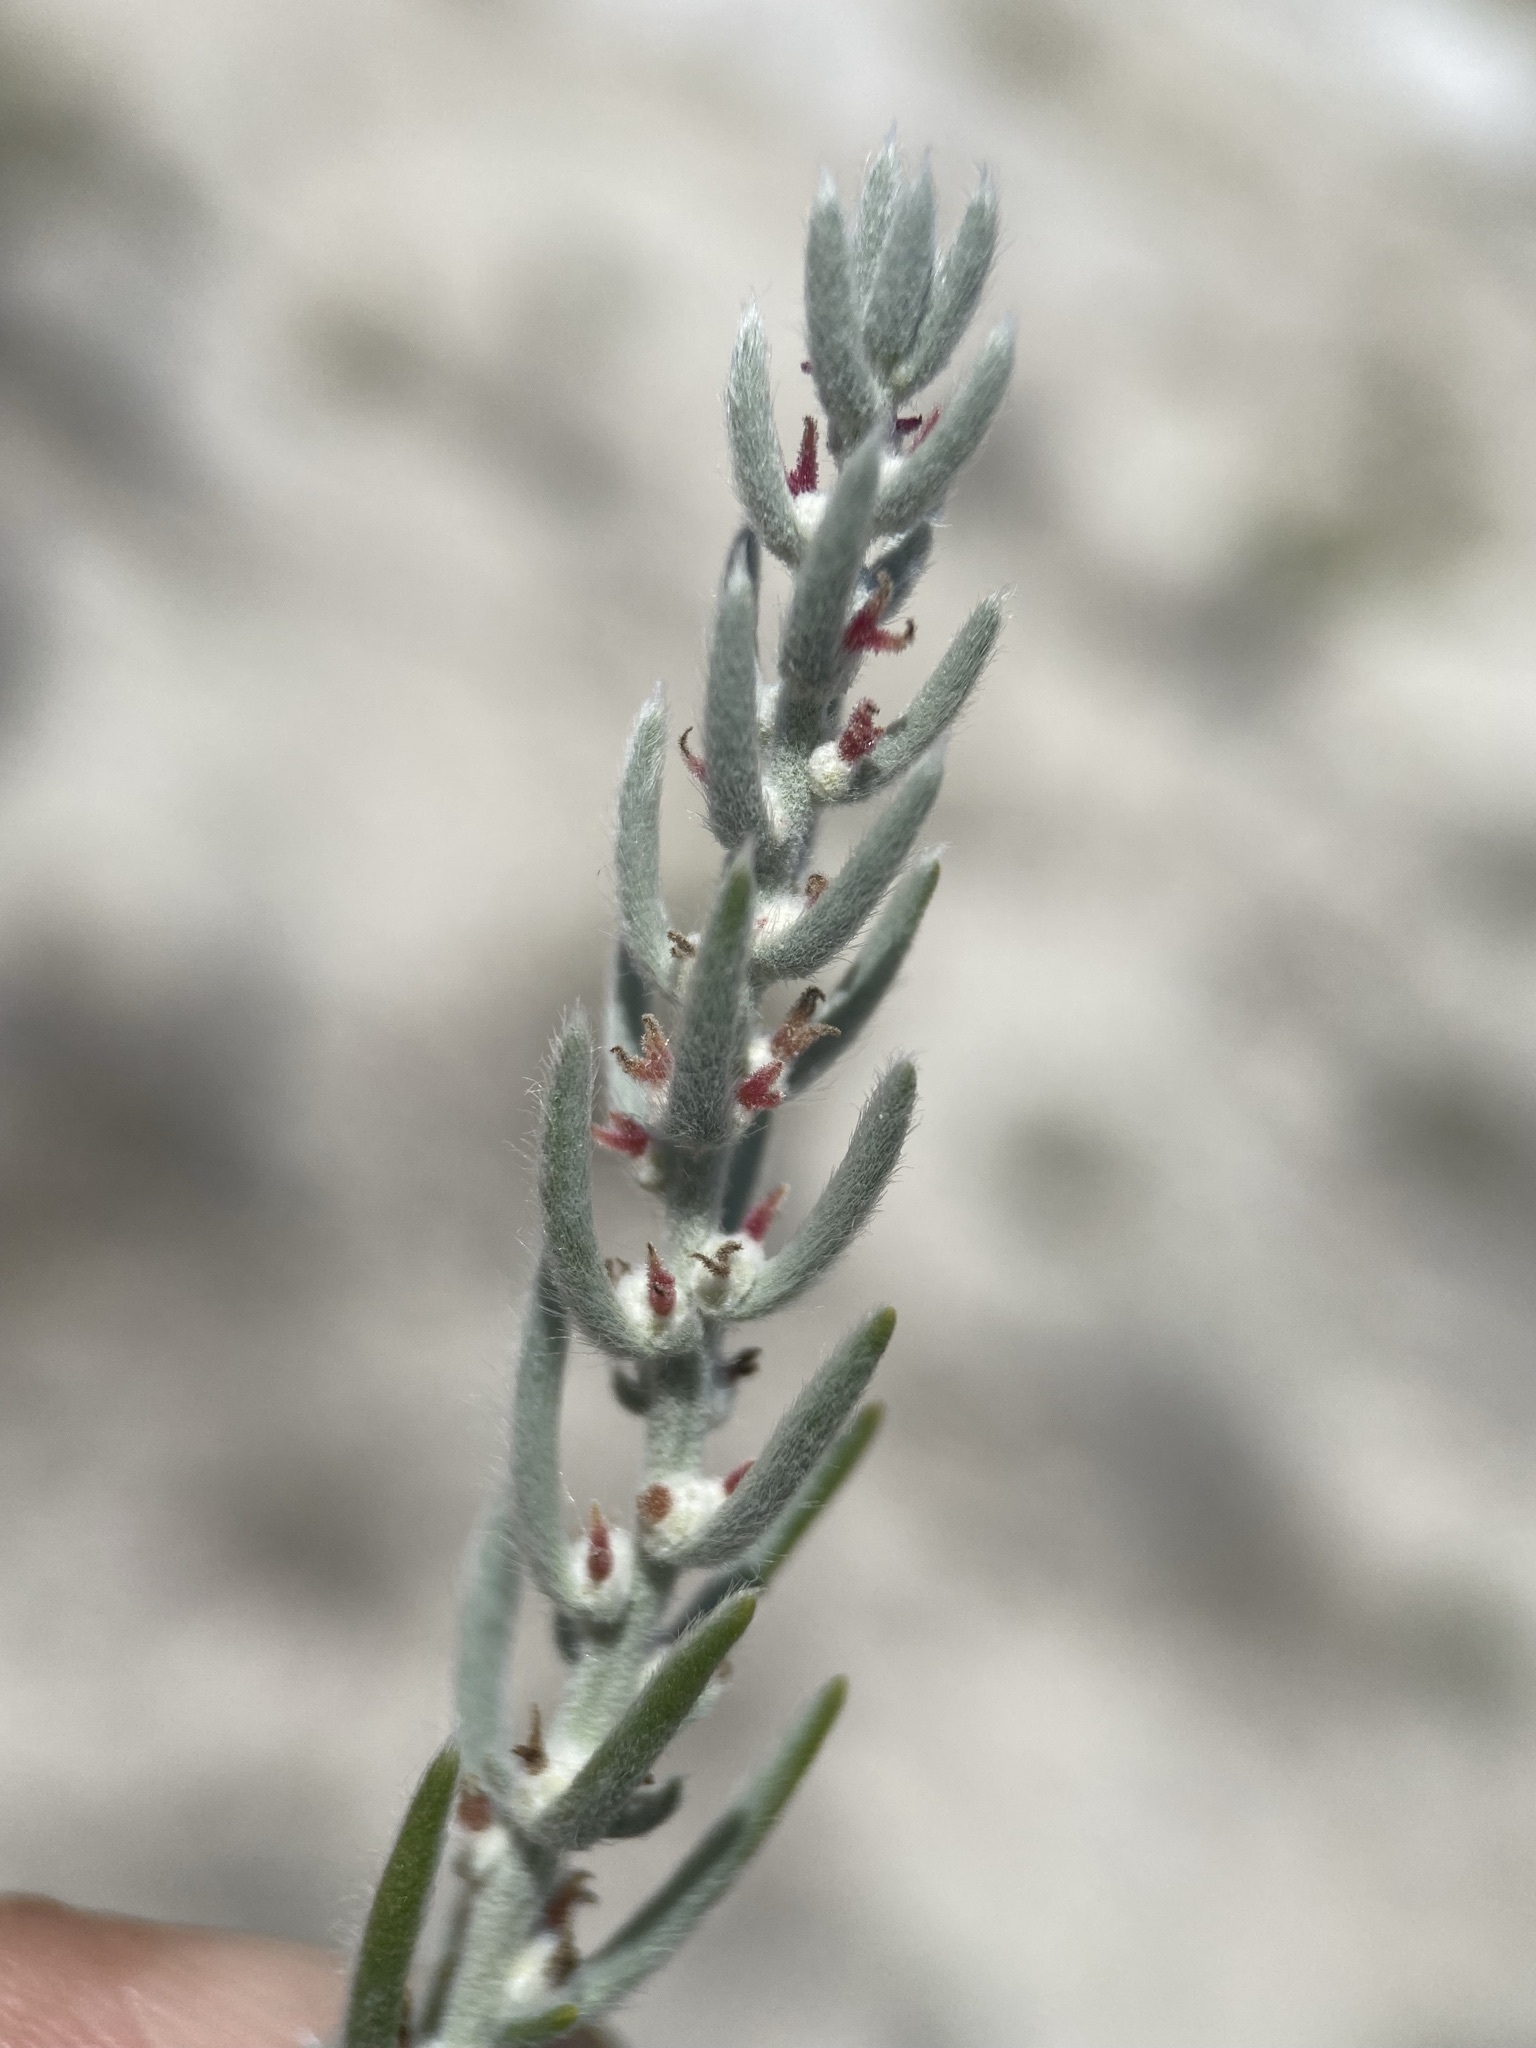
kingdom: Plantae
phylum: Tracheophyta
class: Magnoliopsida
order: Caryophyllales
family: Amaranthaceae
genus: Neokochia
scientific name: Neokochia americana
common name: Perennial summer-cypress
